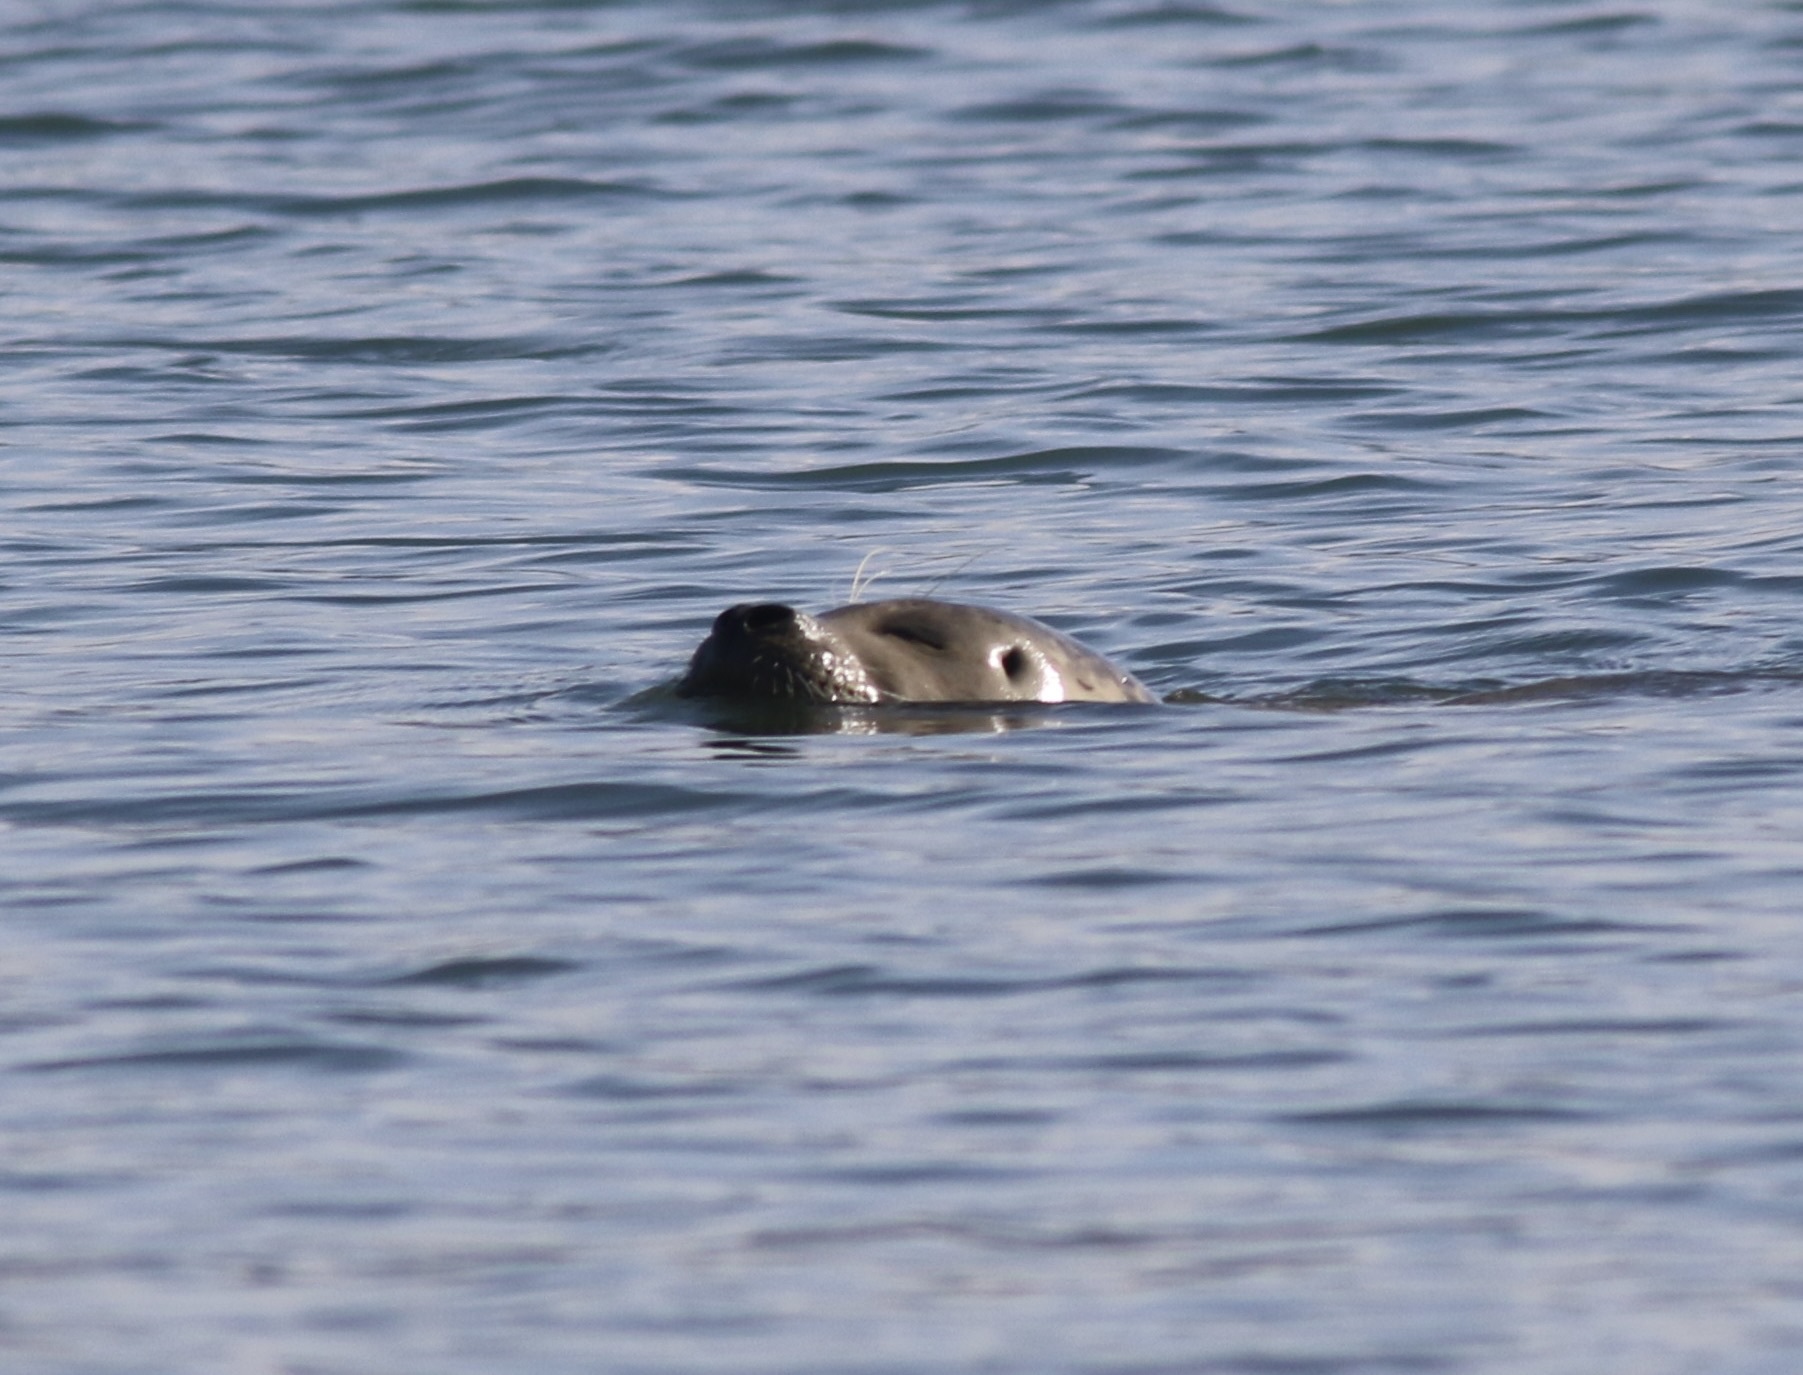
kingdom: Animalia
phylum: Chordata
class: Mammalia
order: Carnivora
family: Phocidae
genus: Phoca
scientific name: Phoca vitulina
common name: Harbor seal
